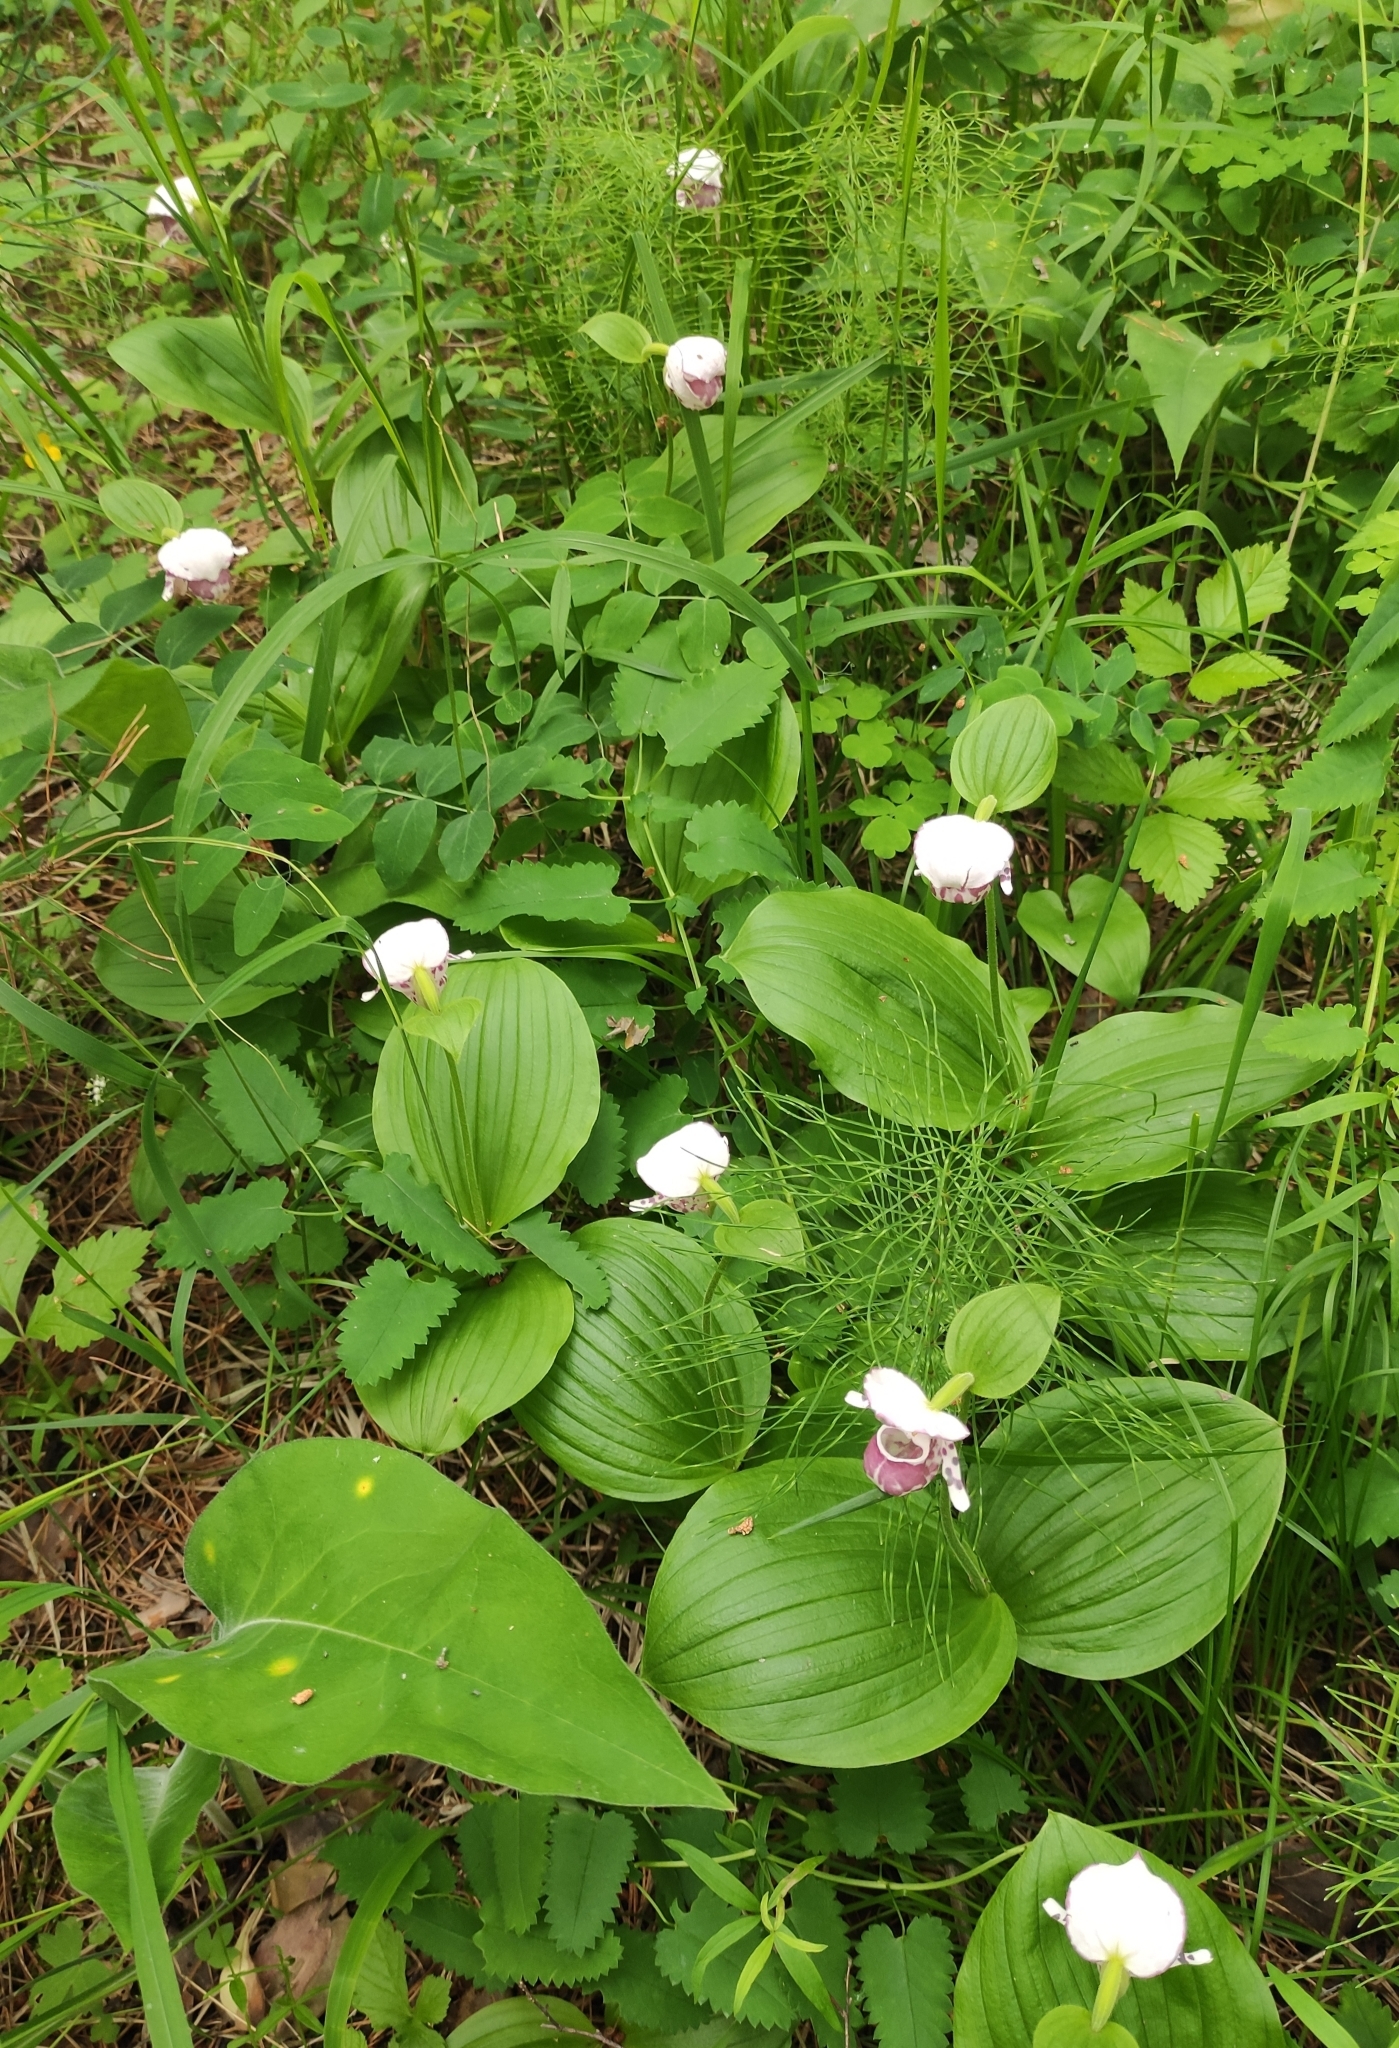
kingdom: Plantae
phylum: Tracheophyta
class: Liliopsida
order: Asparagales
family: Orchidaceae
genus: Cypripedium
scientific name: Cypripedium guttatum
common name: Pink lady slipper
